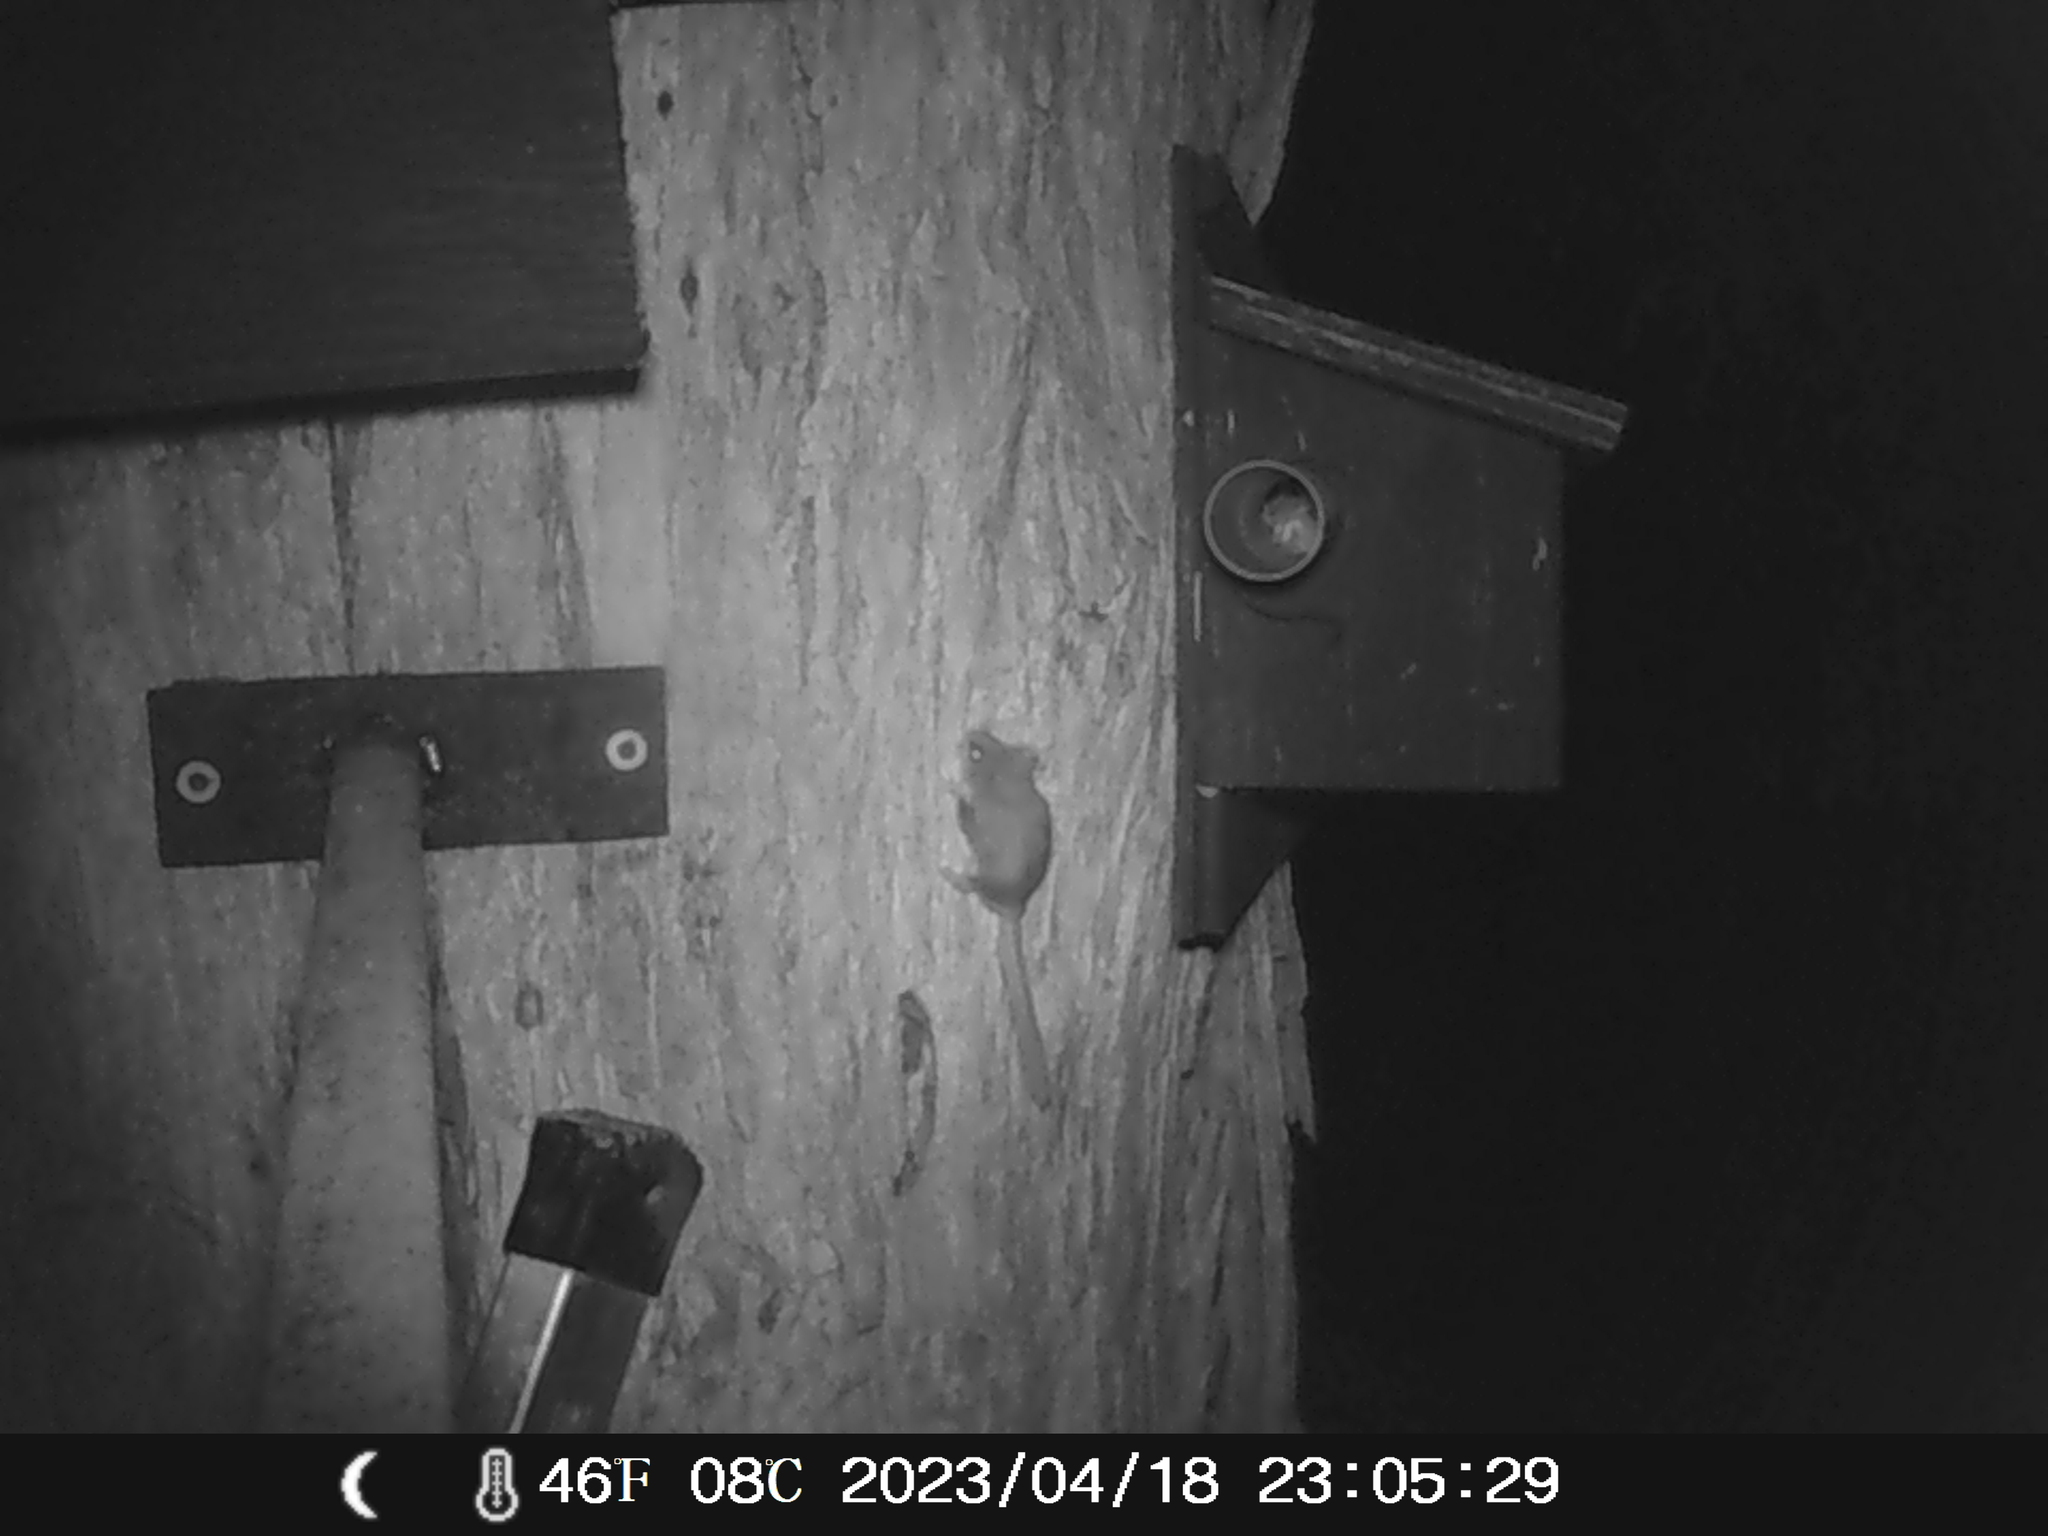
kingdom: Animalia
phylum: Chordata
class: Mammalia
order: Diprotodontia
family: Acrobatidae
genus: Acrobates
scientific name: Acrobates pygmaeus
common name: Feathertail glider
